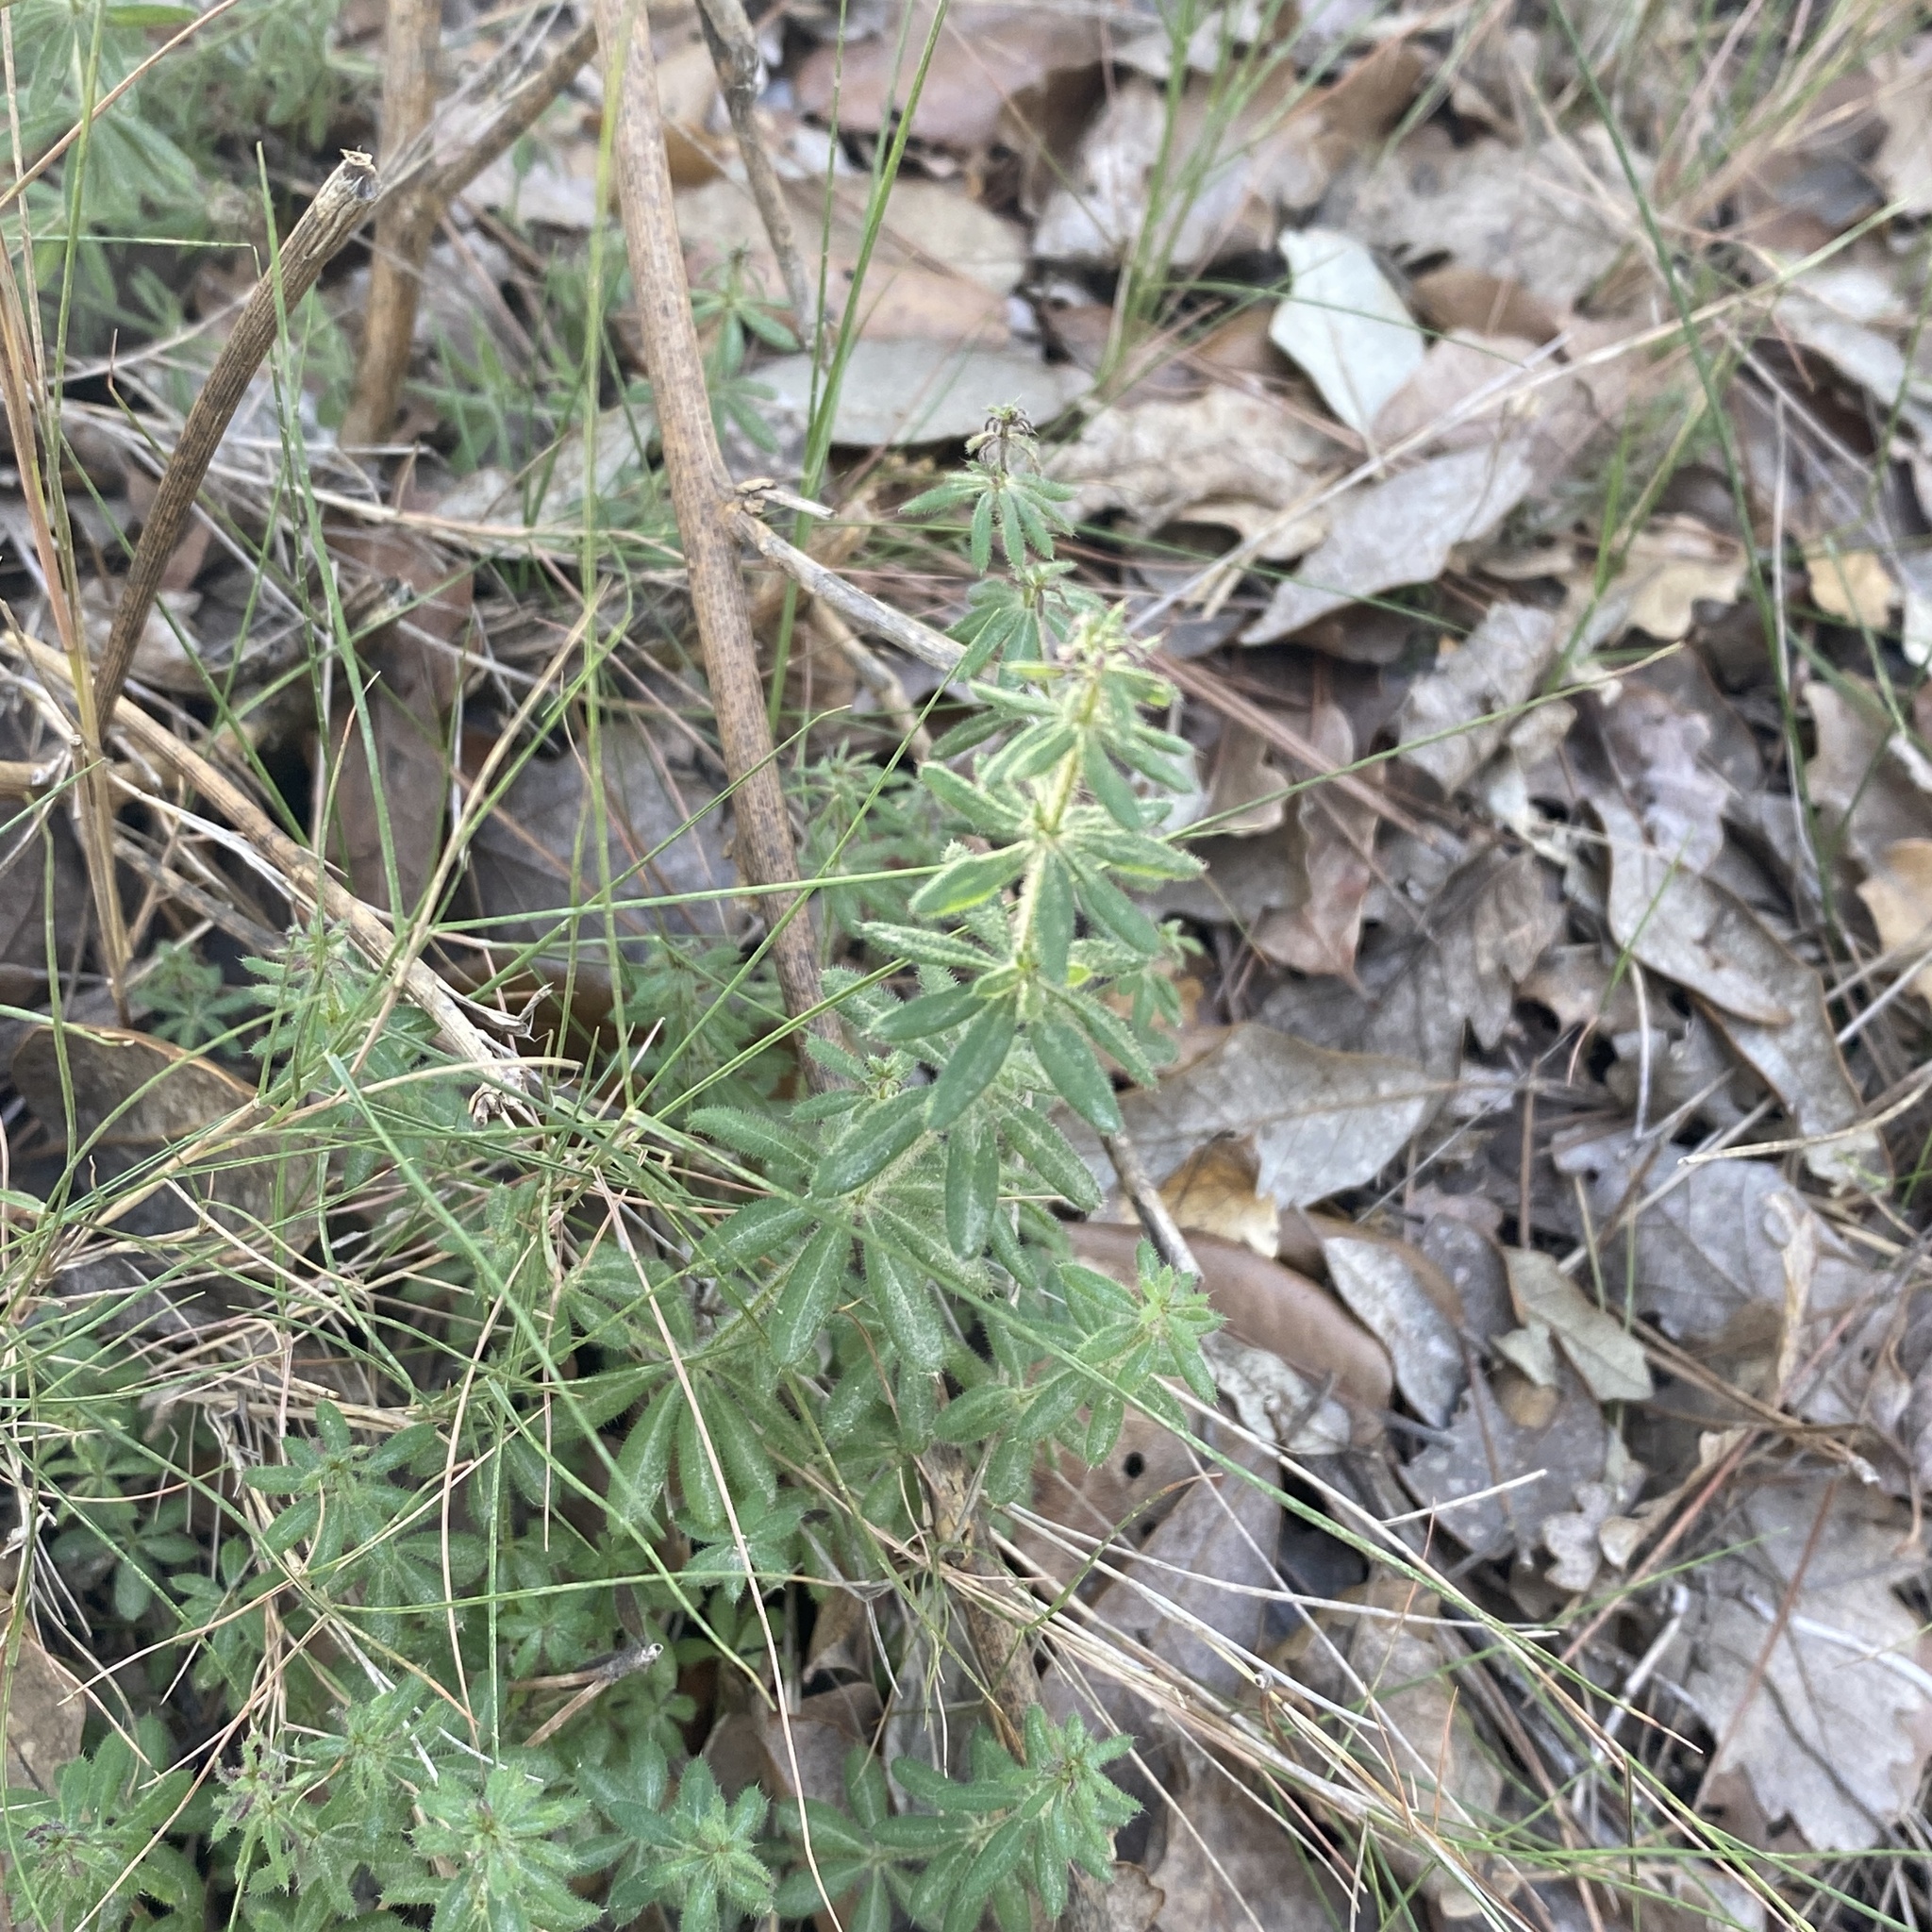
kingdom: Plantae
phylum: Tracheophyta
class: Magnoliopsida
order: Gentianales
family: Rubiaceae
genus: Galium
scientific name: Galium maritimum
